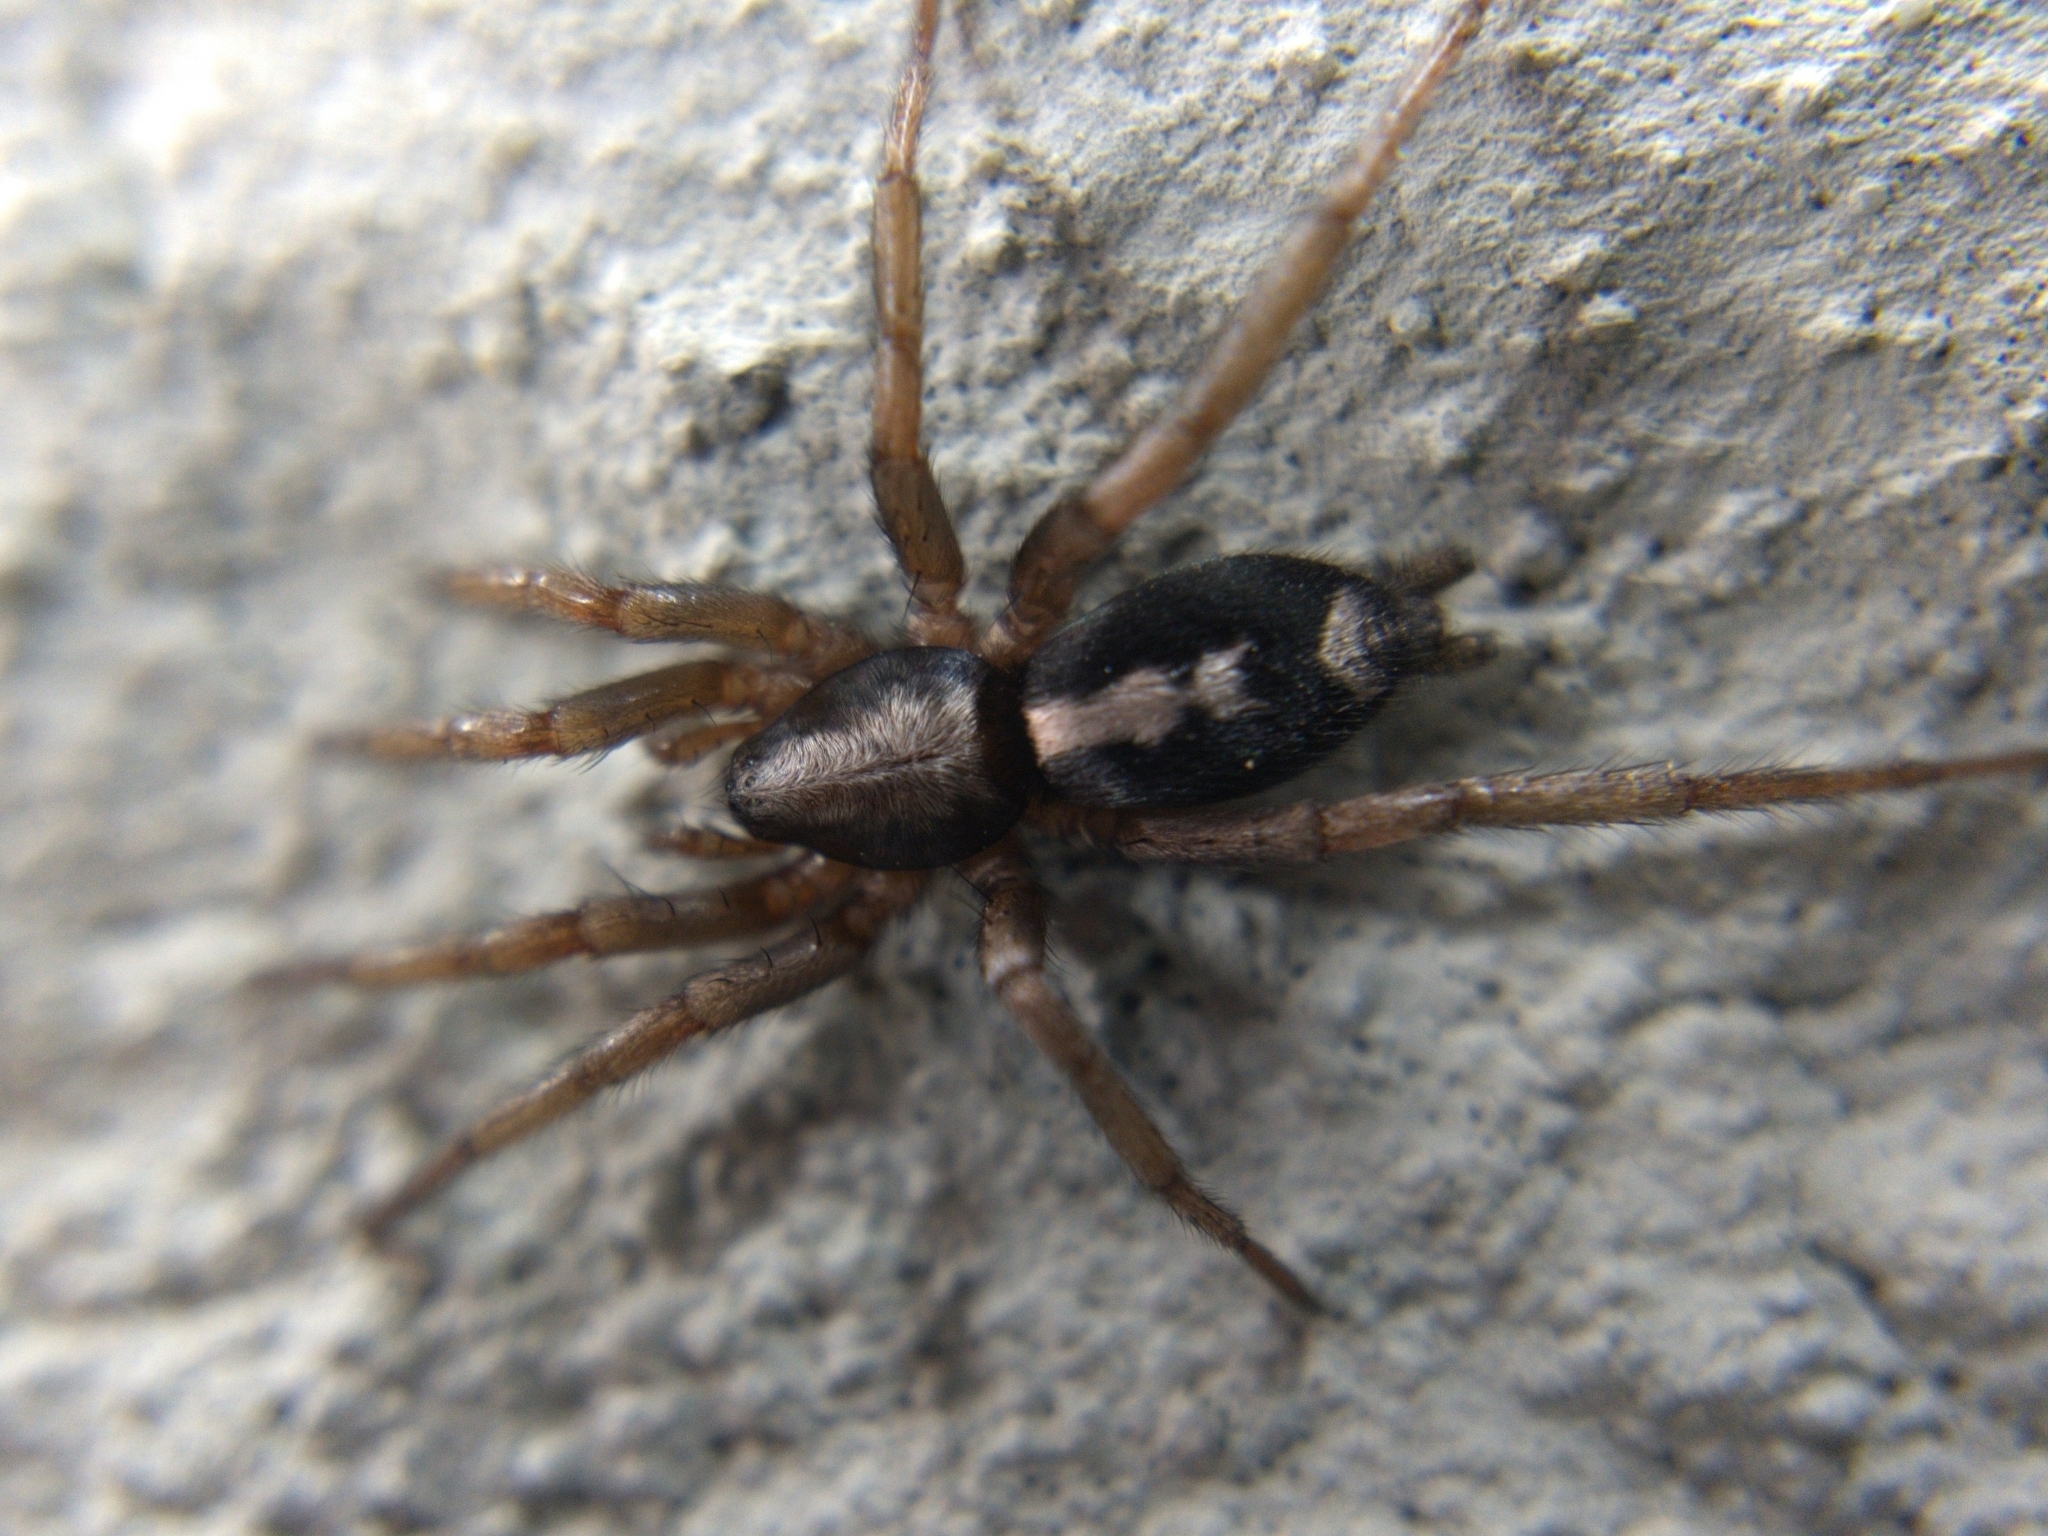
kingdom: Animalia
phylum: Arthropoda
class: Arachnida
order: Araneae
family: Gnaphosidae
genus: Herpyllus
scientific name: Herpyllus ecclesiasticus
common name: Eastern parson spider
